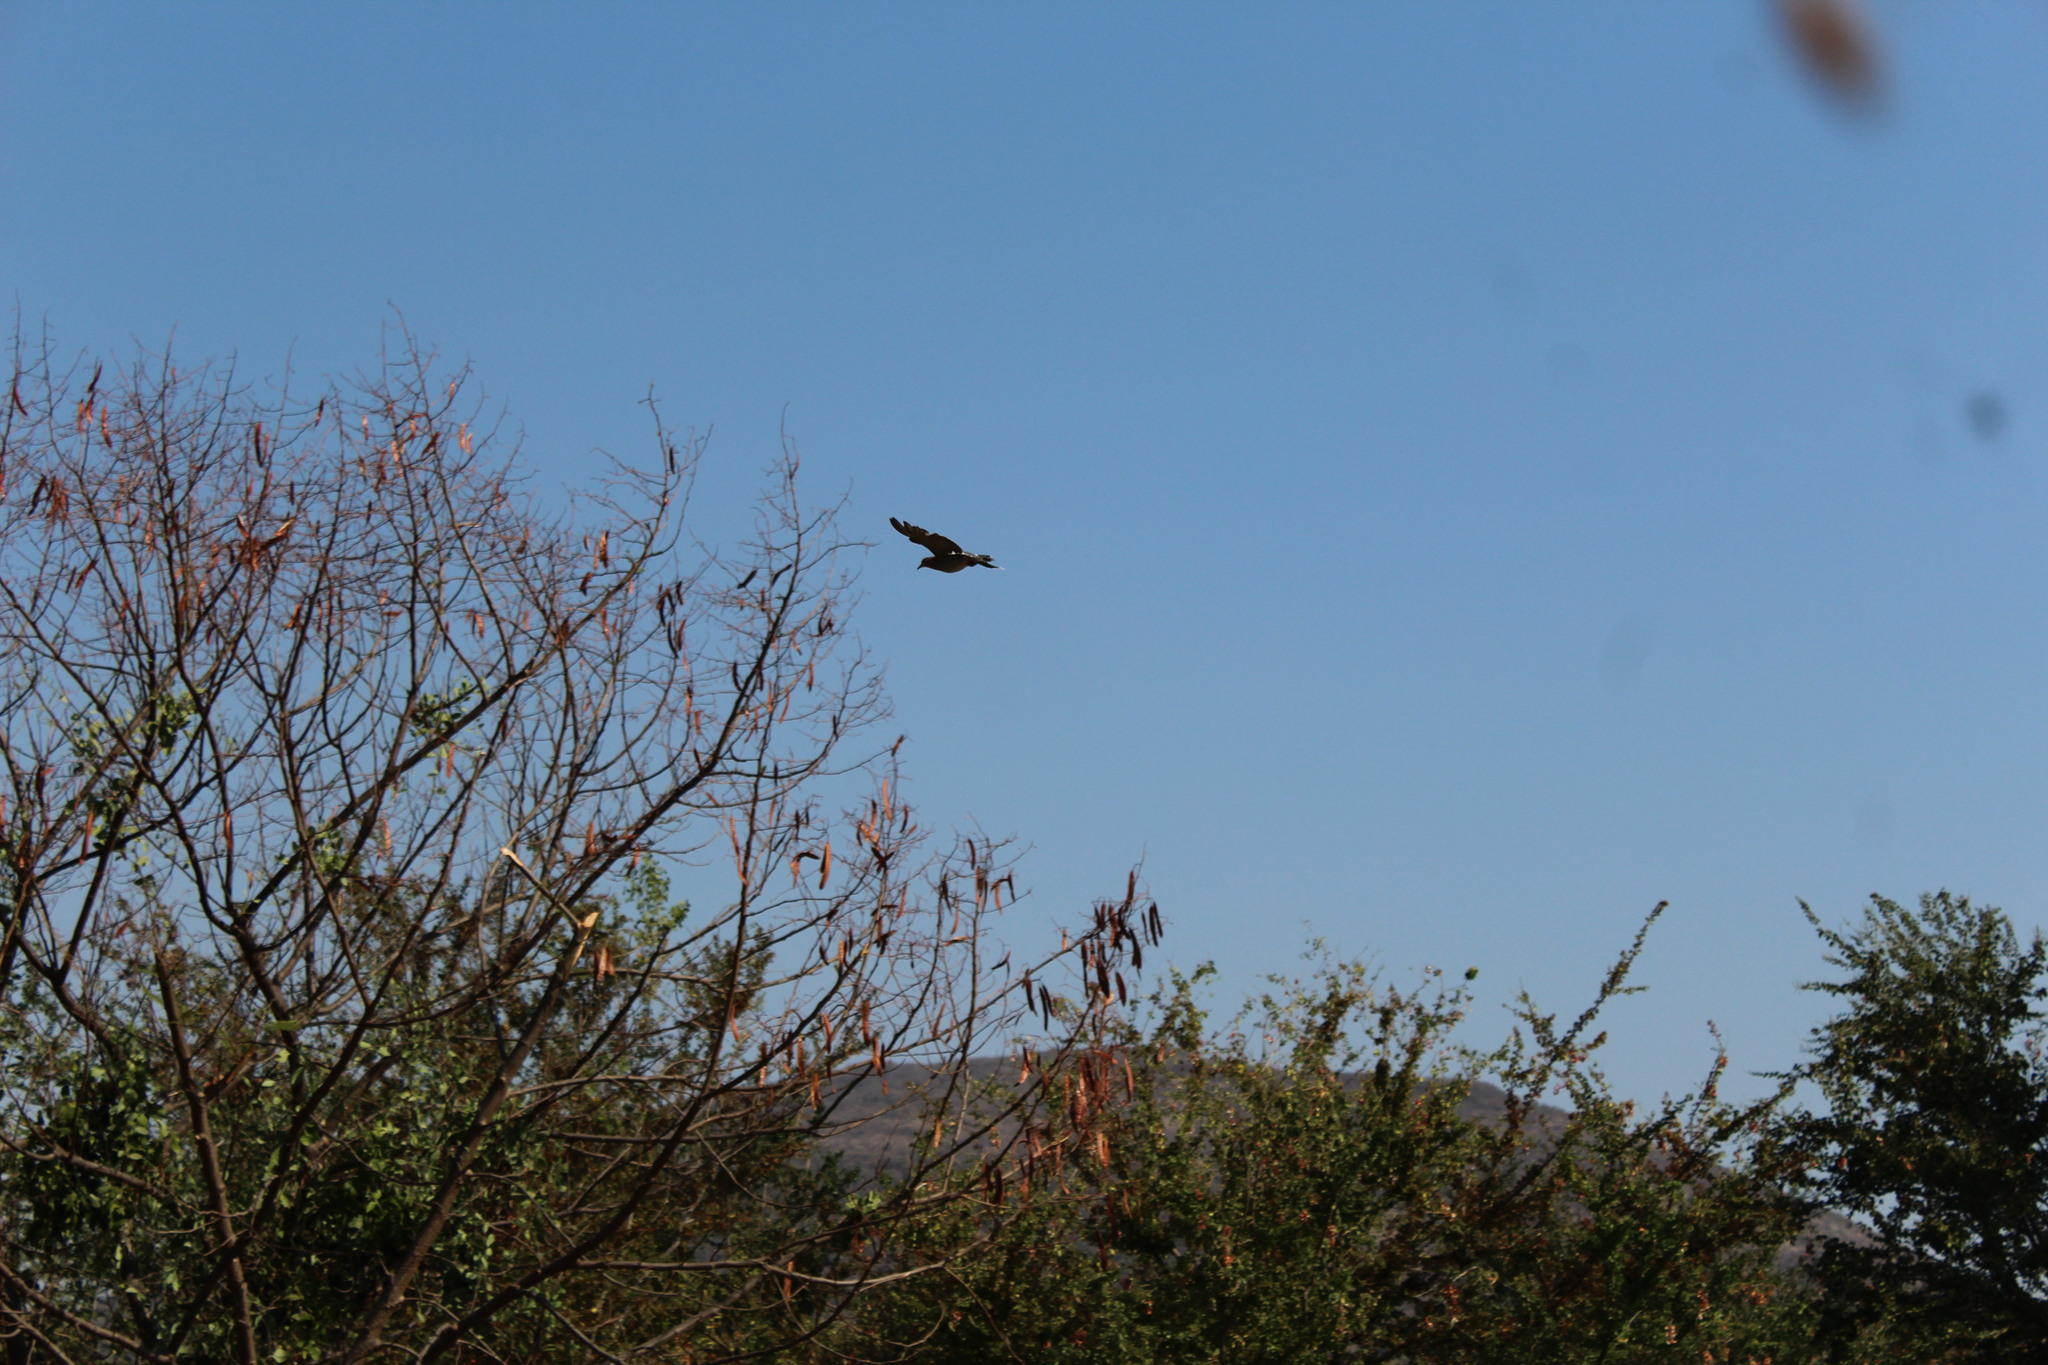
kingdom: Animalia
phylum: Chordata
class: Aves
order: Columbiformes
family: Columbidae
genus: Zenaida
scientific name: Zenaida asiatica
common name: White-winged dove
